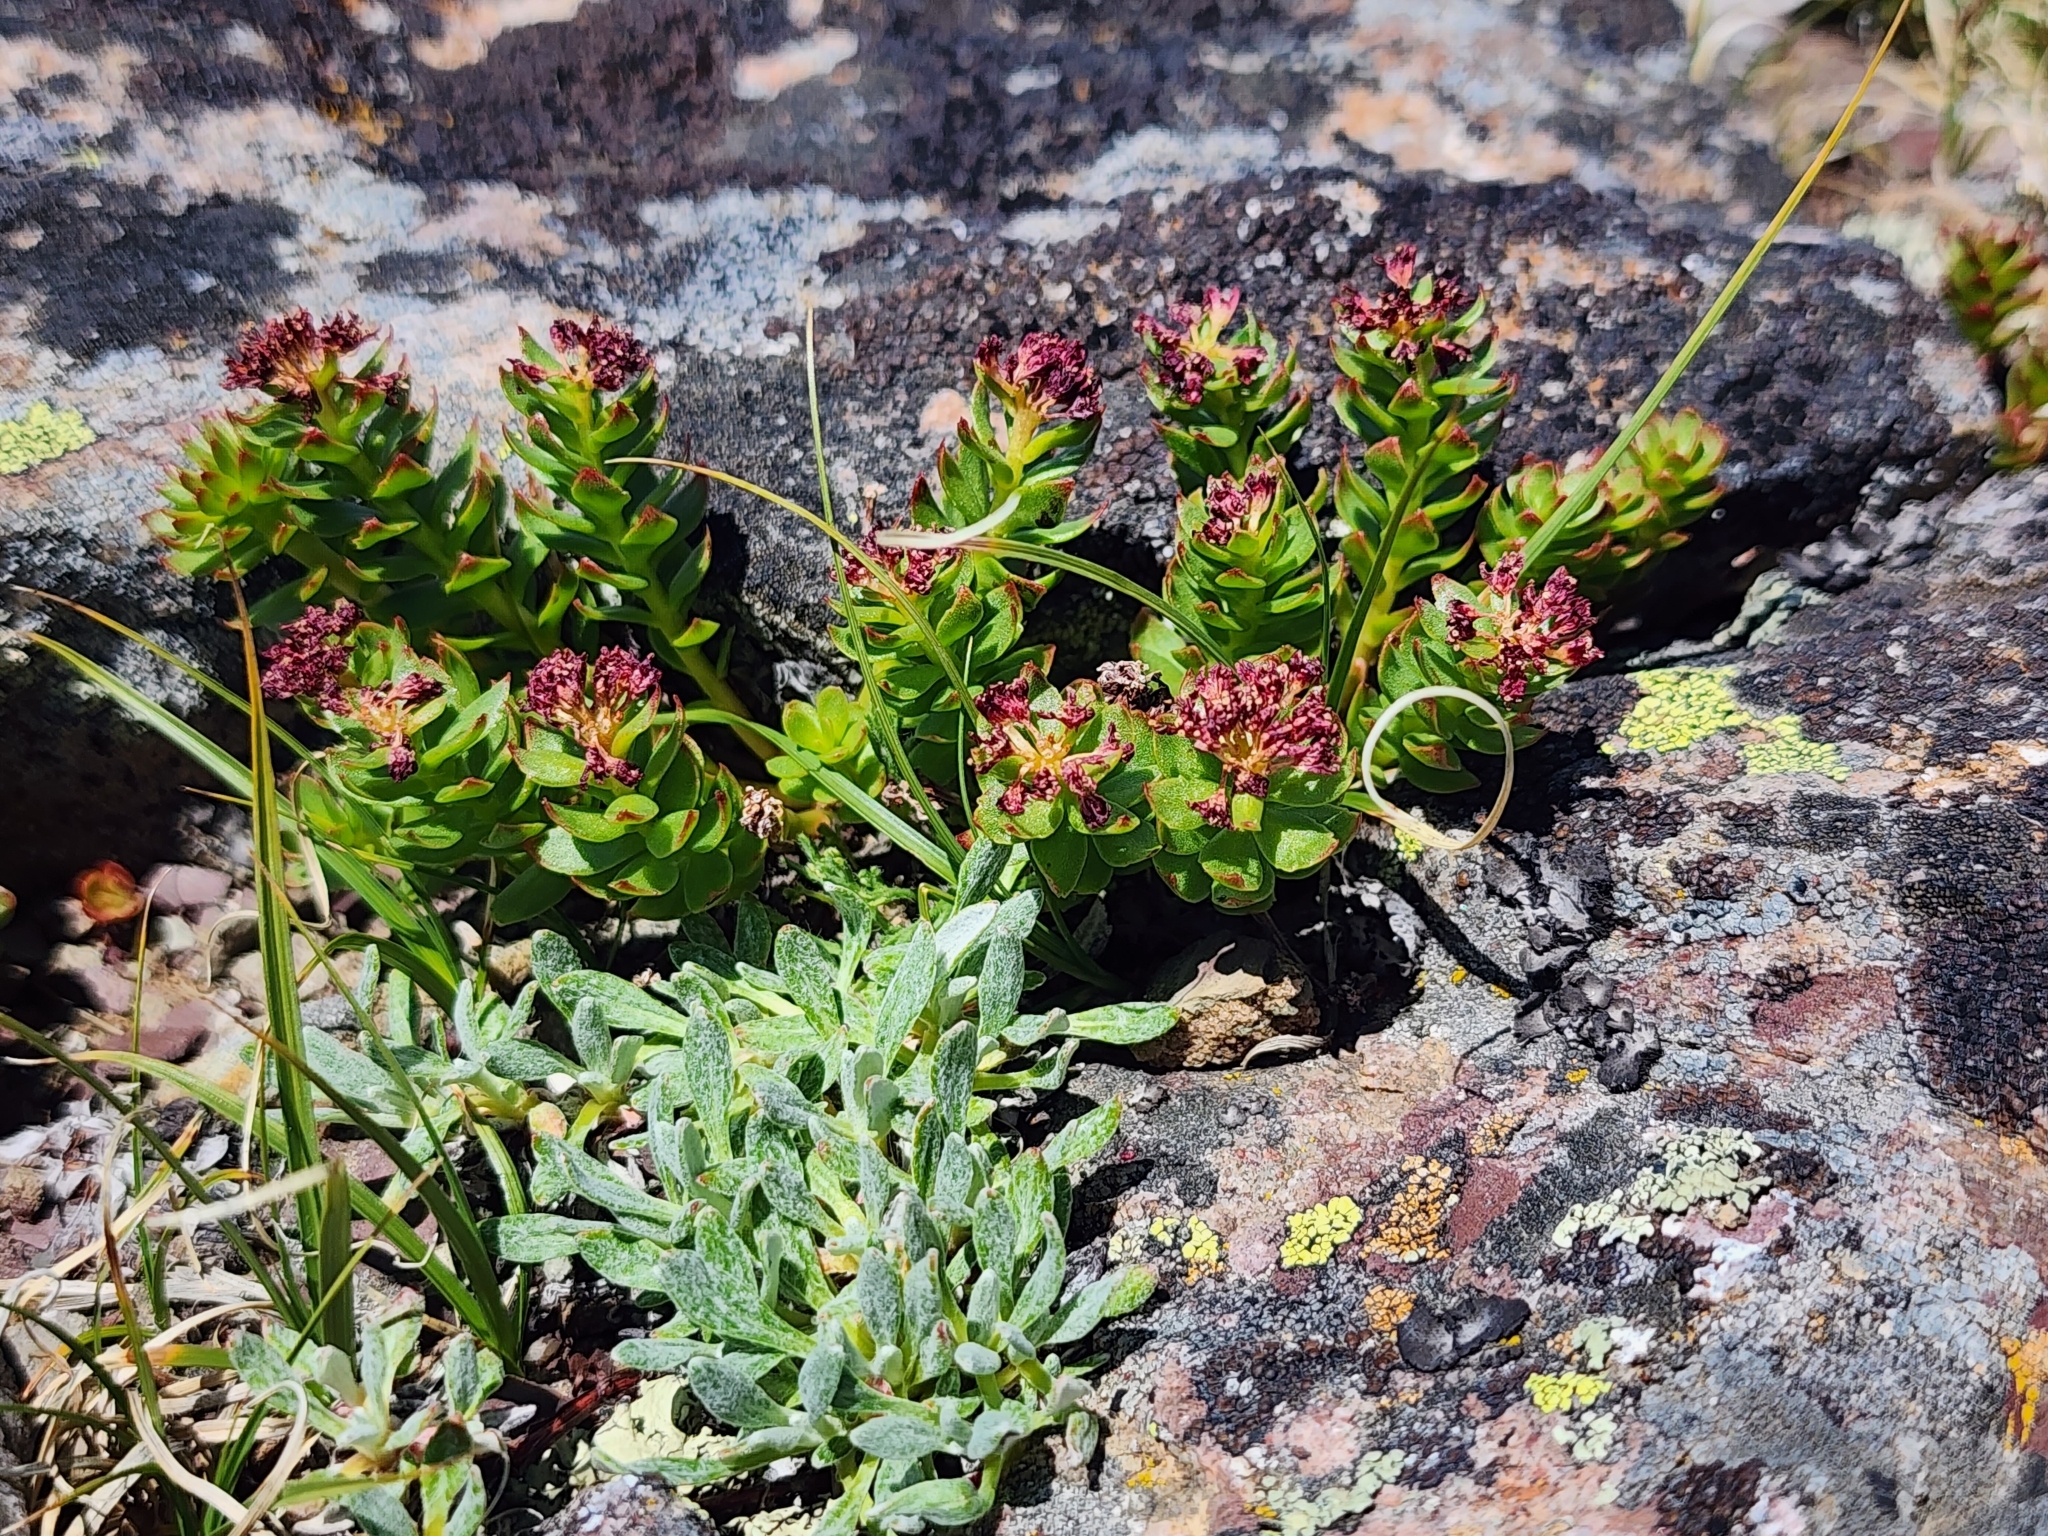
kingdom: Plantae
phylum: Tracheophyta
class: Magnoliopsida
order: Saxifragales
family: Crassulaceae
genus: Rhodiola
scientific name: Rhodiola integrifolia
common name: Western roseroot
